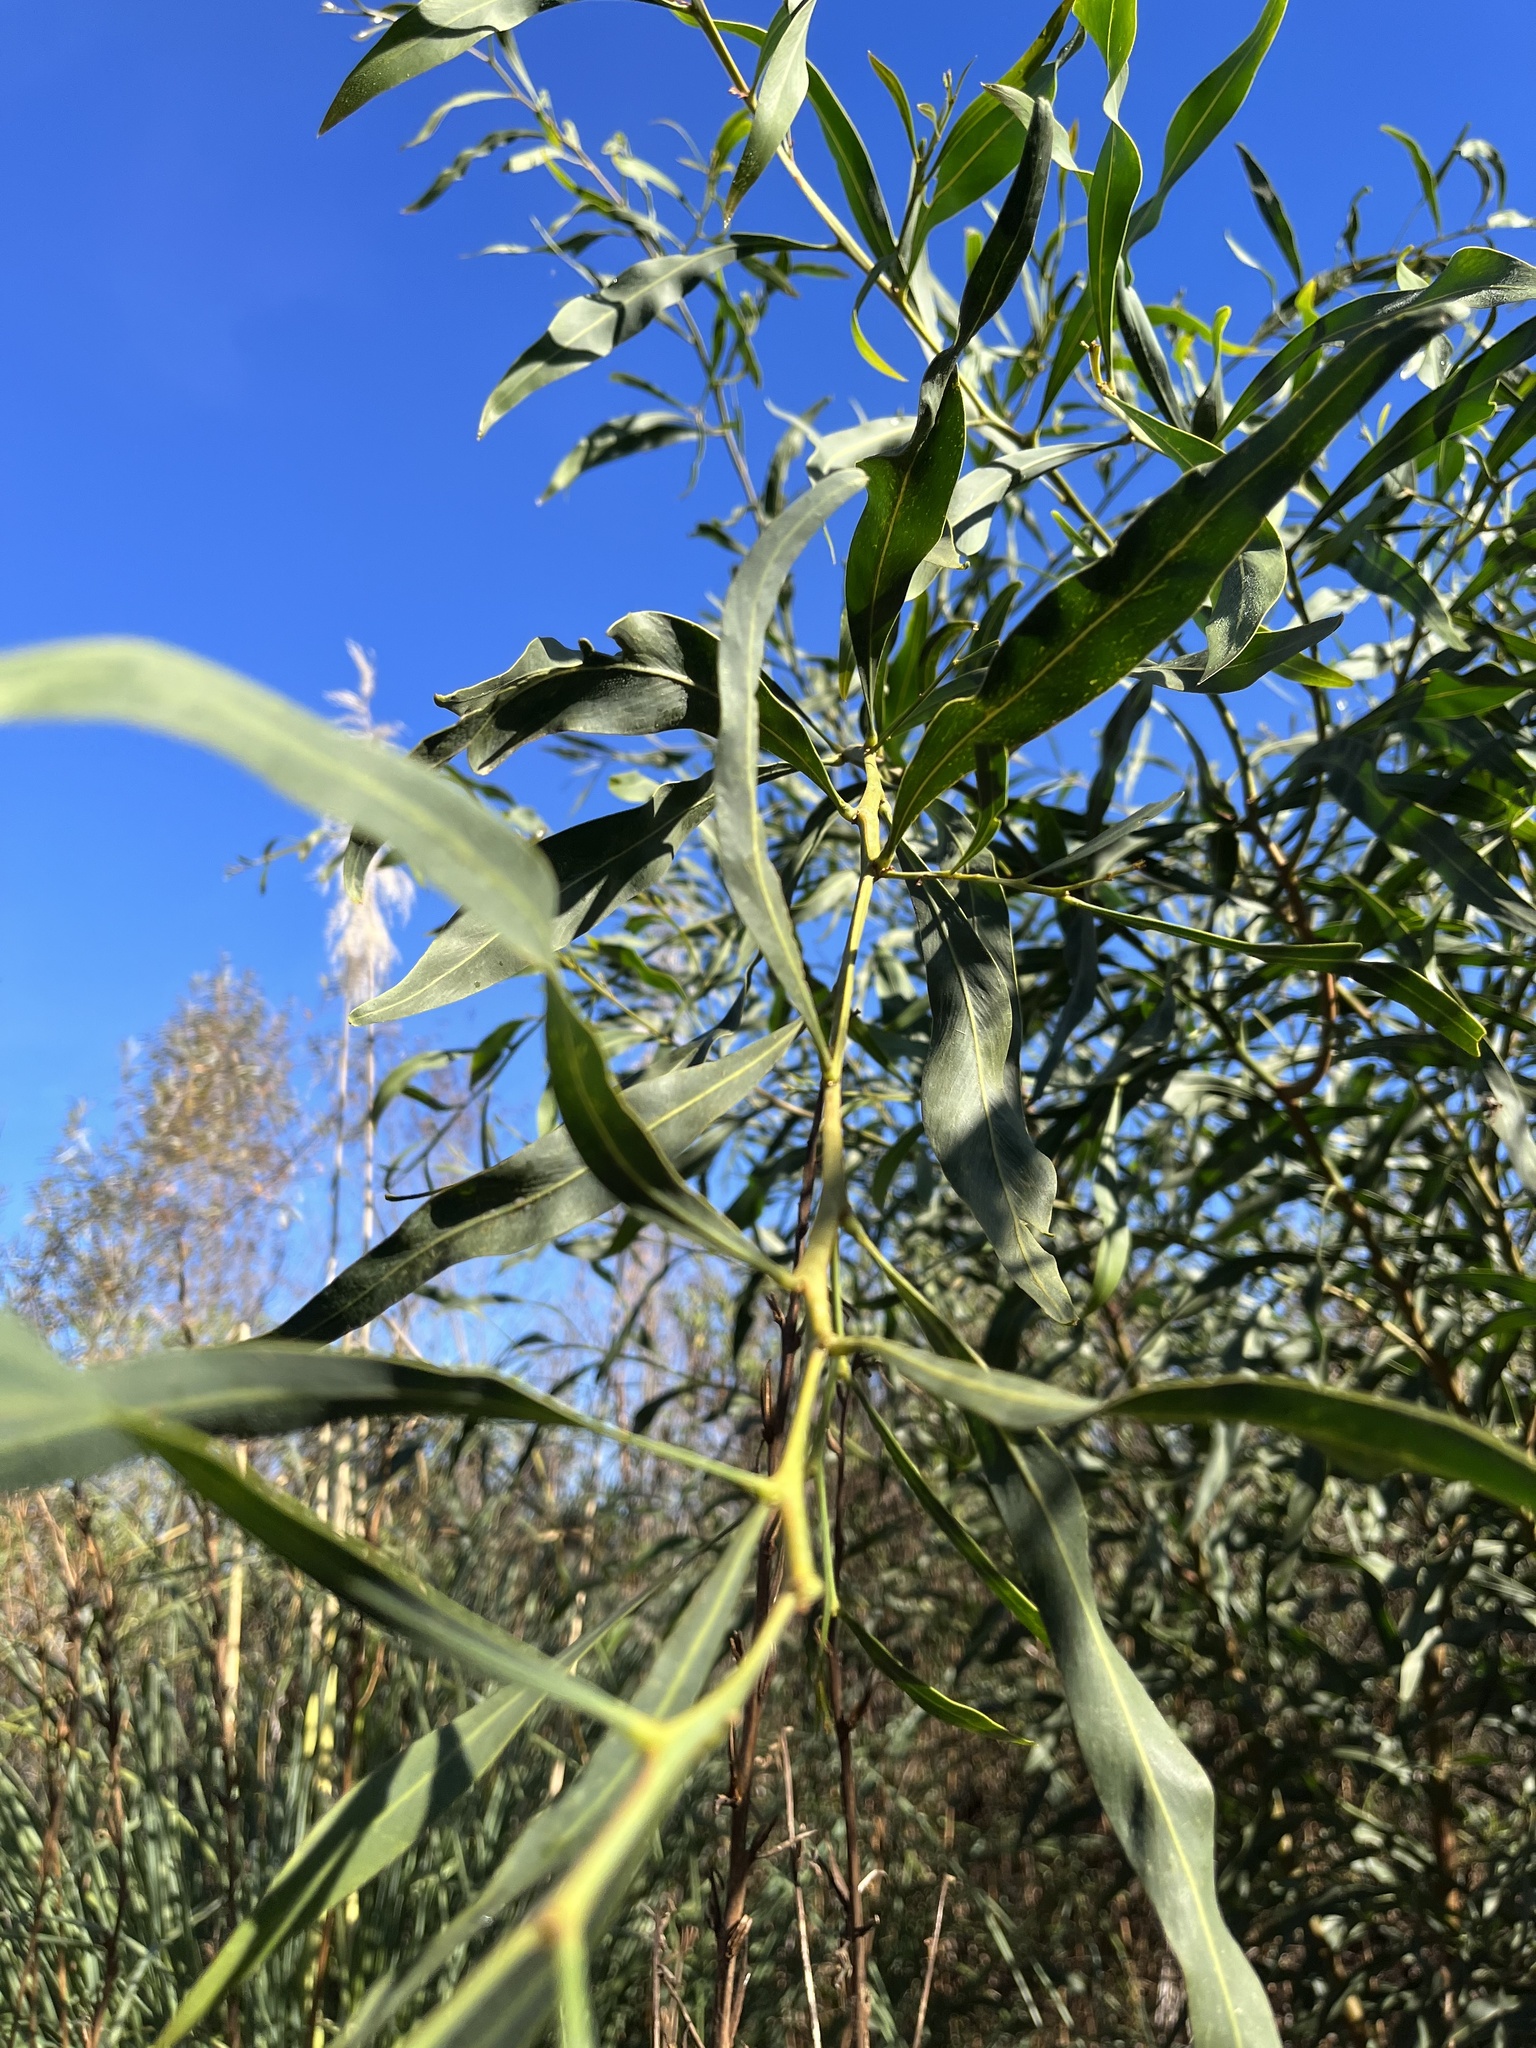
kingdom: Plantae
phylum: Tracheophyta
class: Magnoliopsida
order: Fabales
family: Fabaceae
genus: Acacia
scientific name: Acacia saligna
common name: Orange wattle
